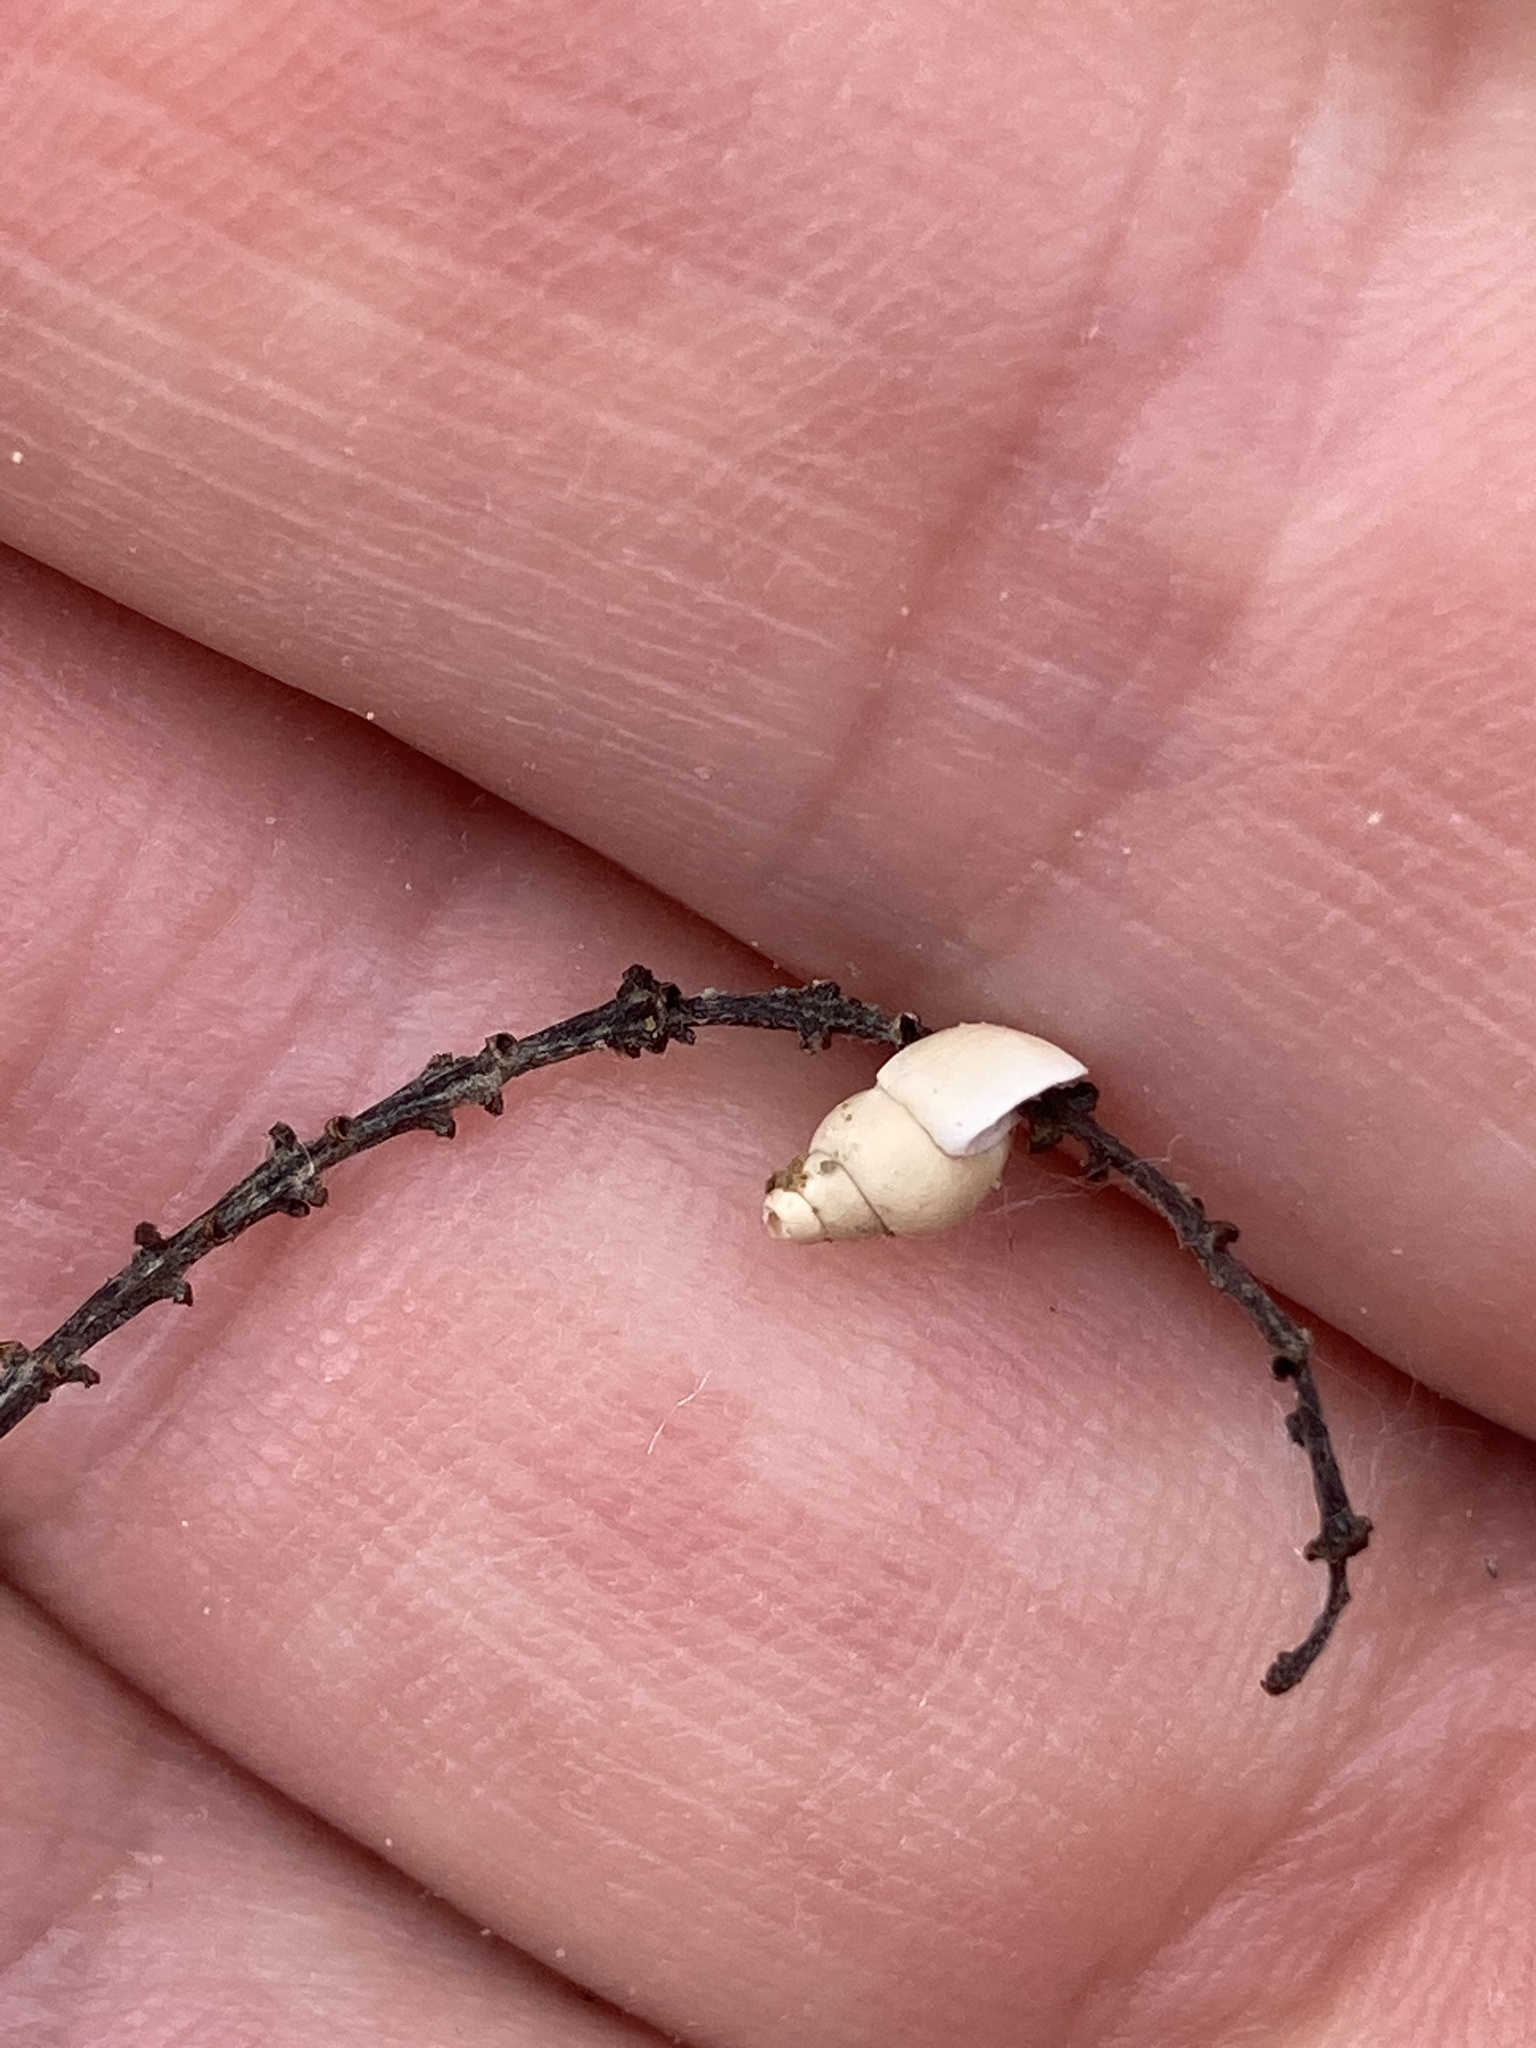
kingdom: Animalia
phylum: Mollusca
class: Gastropoda
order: Littorinimorpha
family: Tateidae
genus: Potamopyrgus
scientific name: Potamopyrgus antipodarum
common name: Jenkins' spire snail
